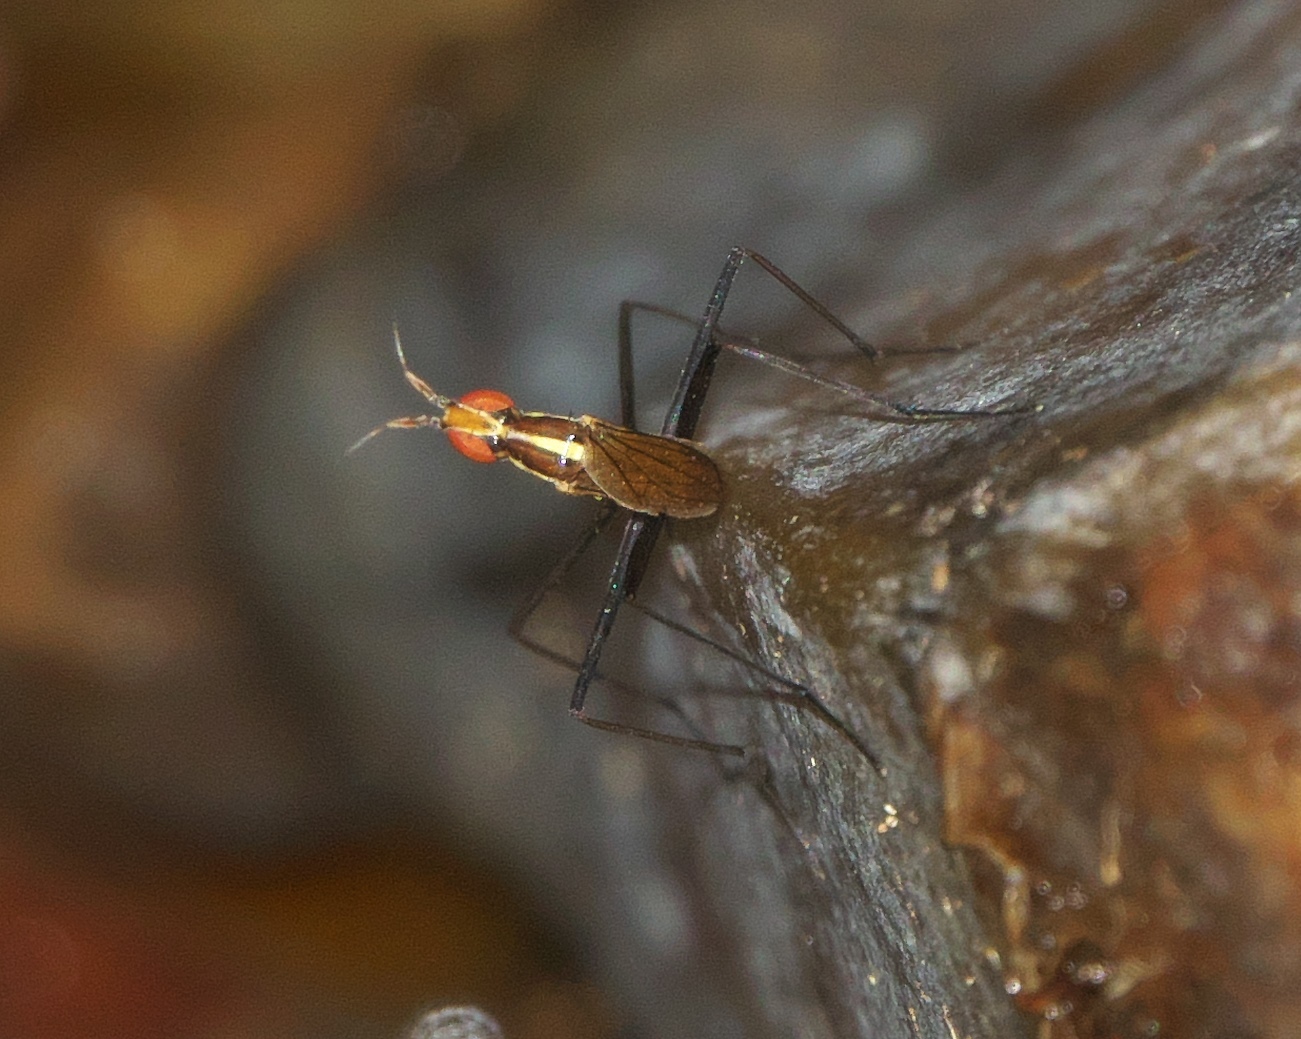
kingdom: Animalia
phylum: Arthropoda
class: Insecta
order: Diptera
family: Neriidae
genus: Telostylinus
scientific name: Telostylinus lineolatus
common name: Banana stalk fly
